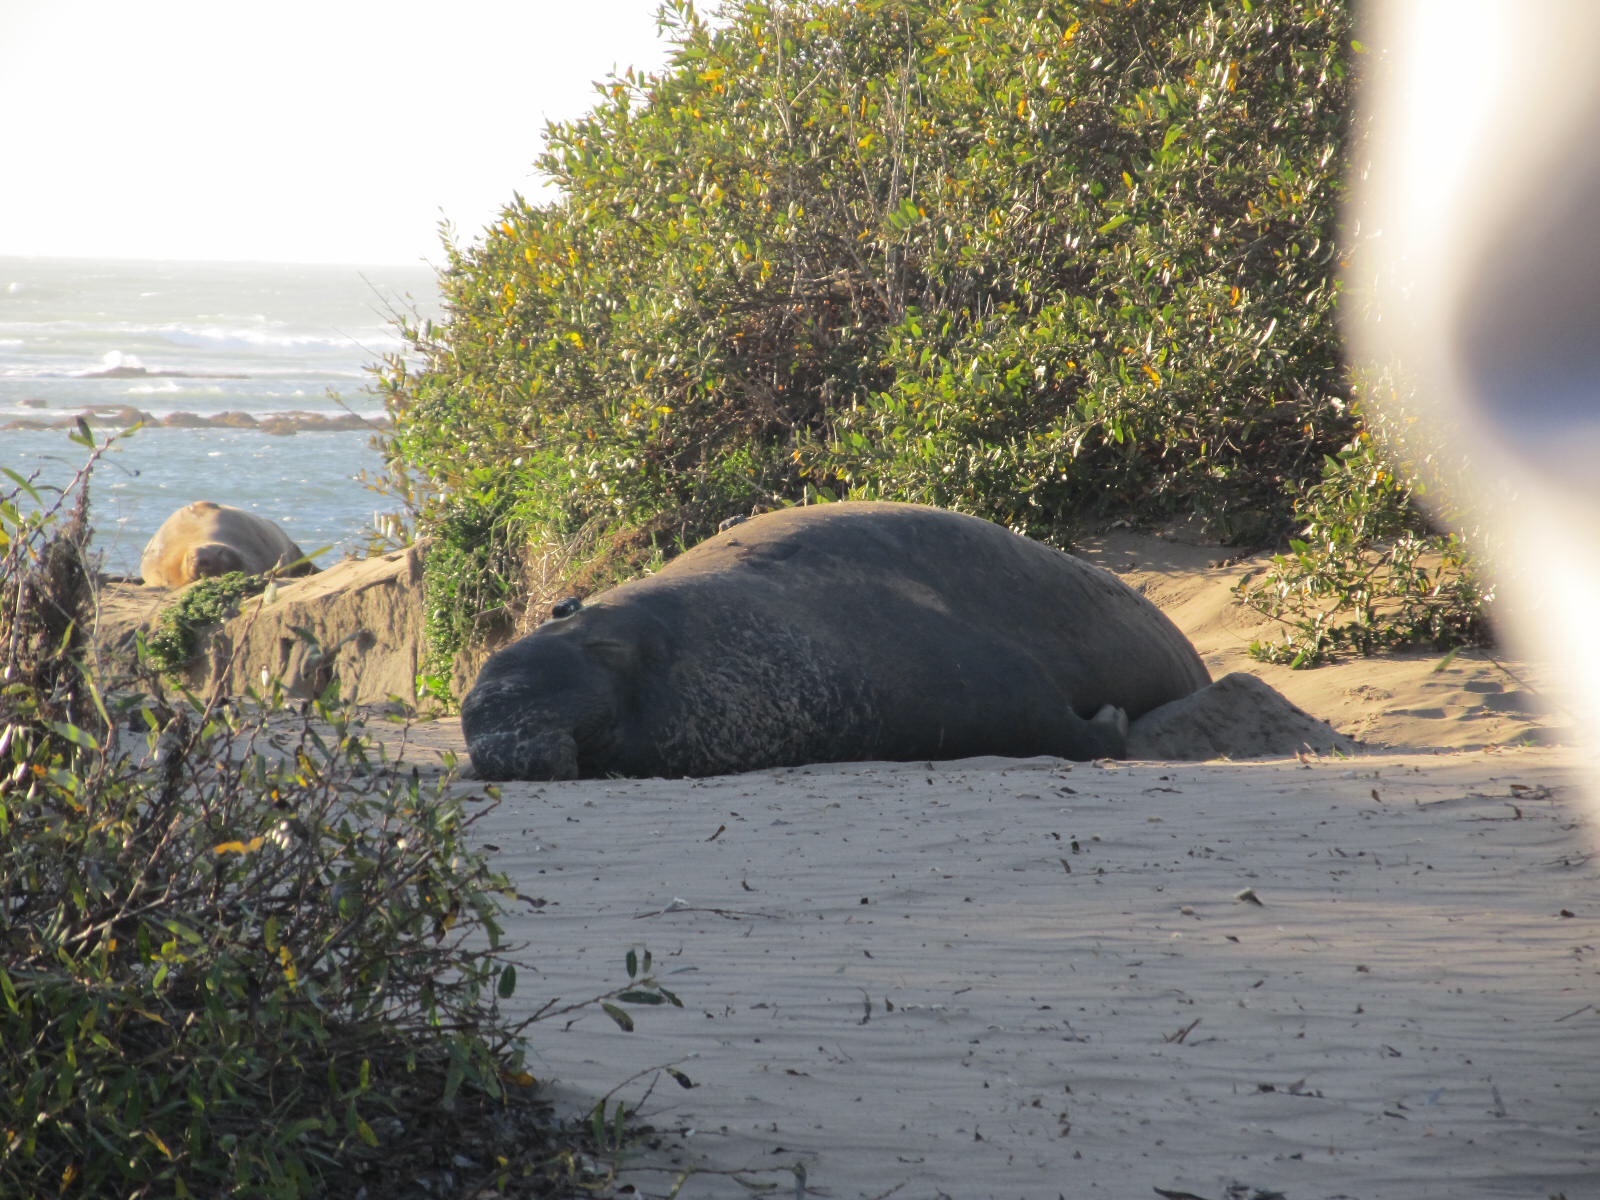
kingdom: Animalia
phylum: Chordata
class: Mammalia
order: Carnivora
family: Phocidae
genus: Mirounga
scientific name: Mirounga angustirostris
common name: Northern elephant seal
